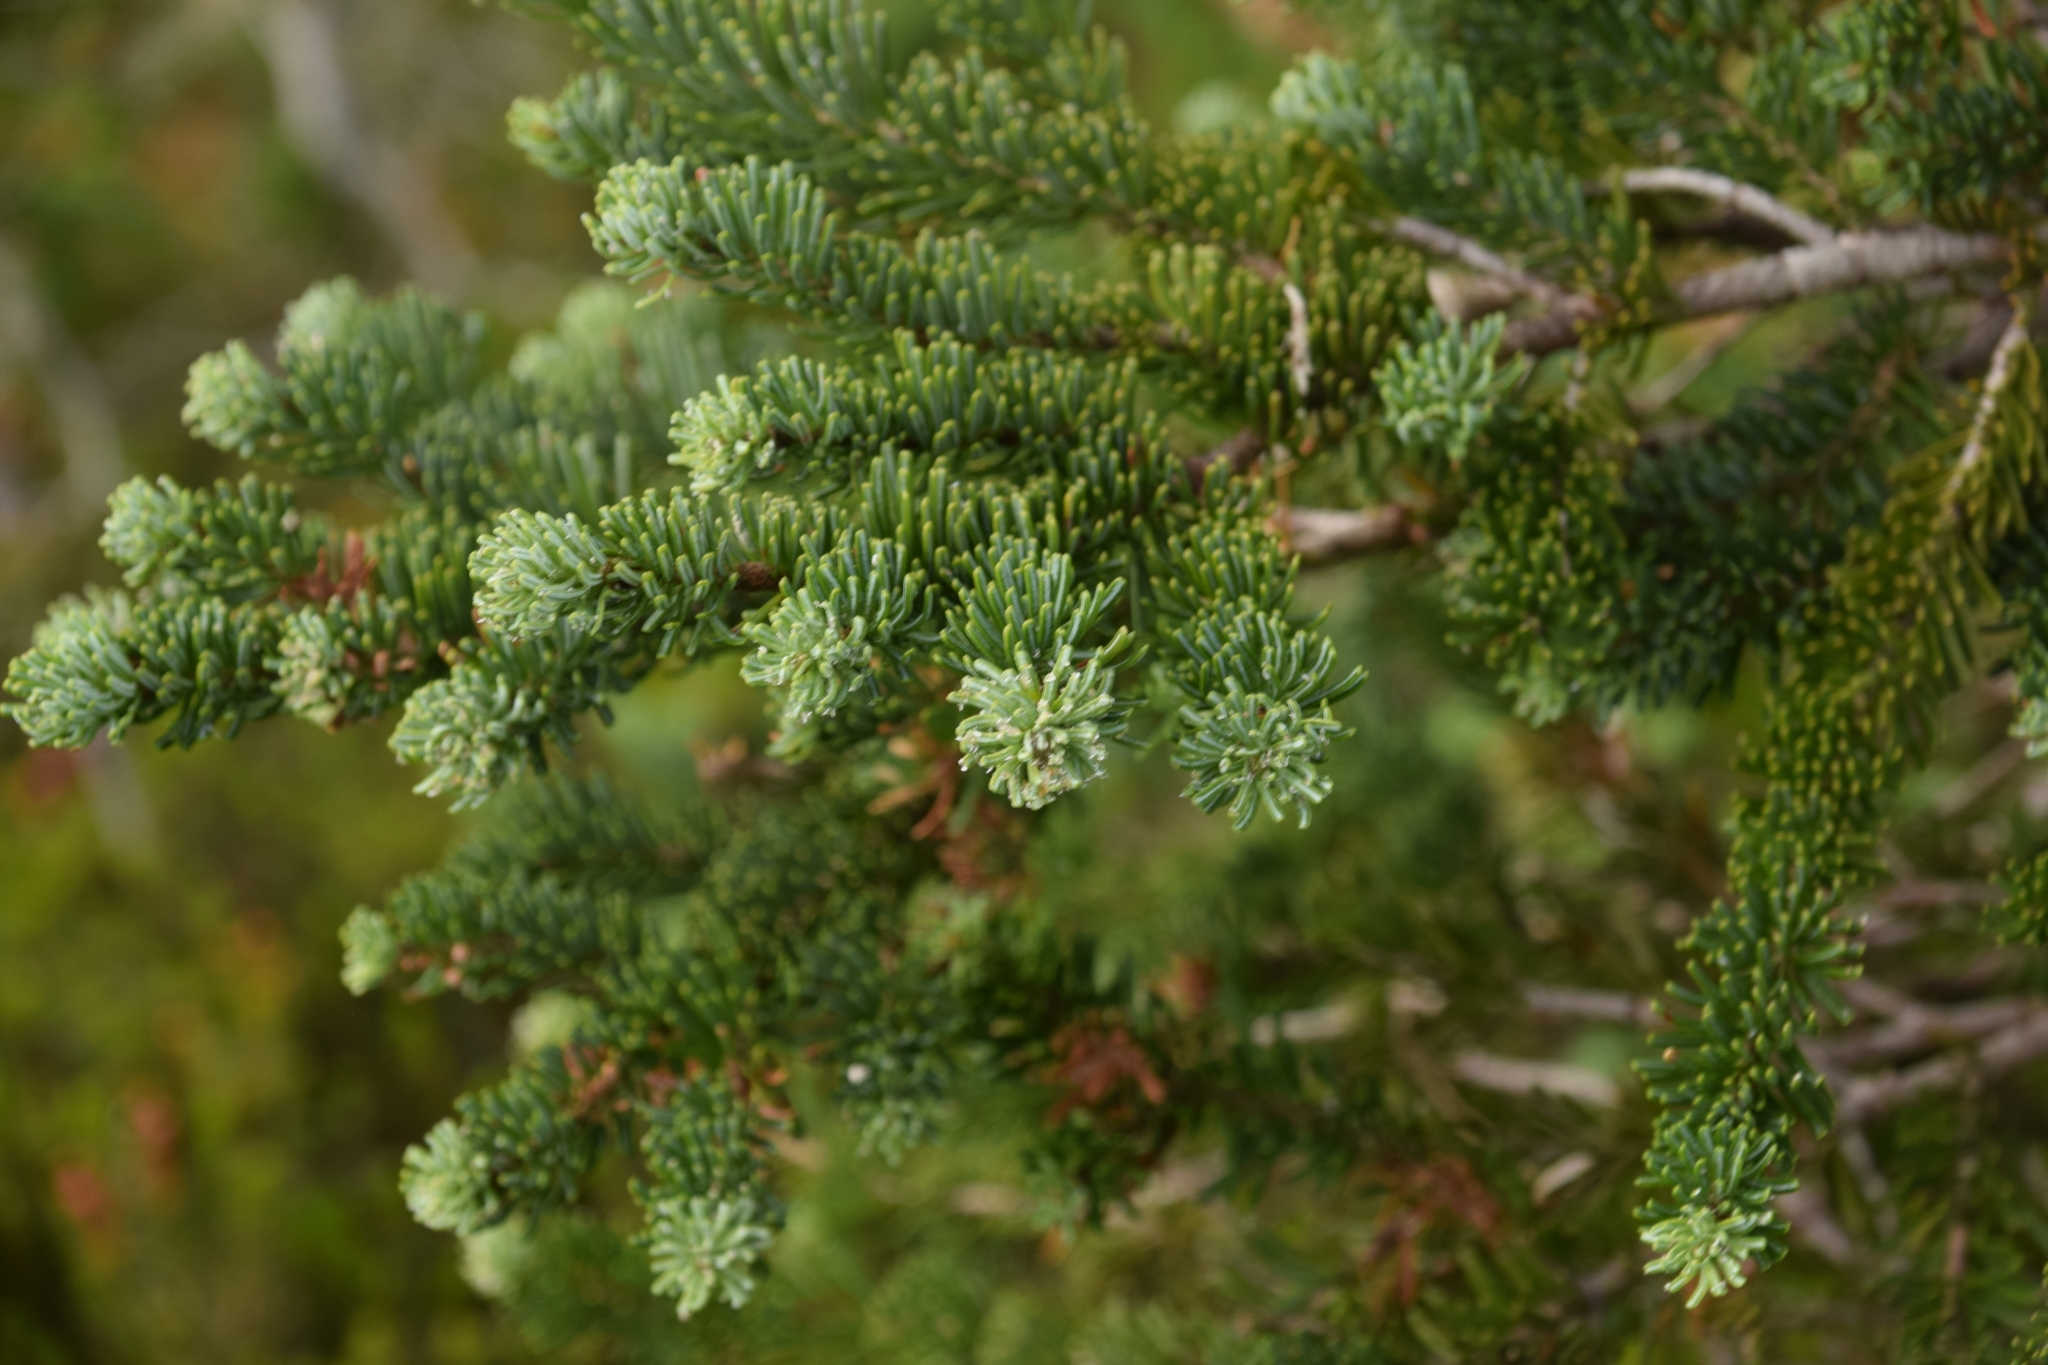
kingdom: Plantae
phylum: Tracheophyta
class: Pinopsida
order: Pinales
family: Pinaceae
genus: Abies
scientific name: Abies lasiocarpa
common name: Subalpine fir
